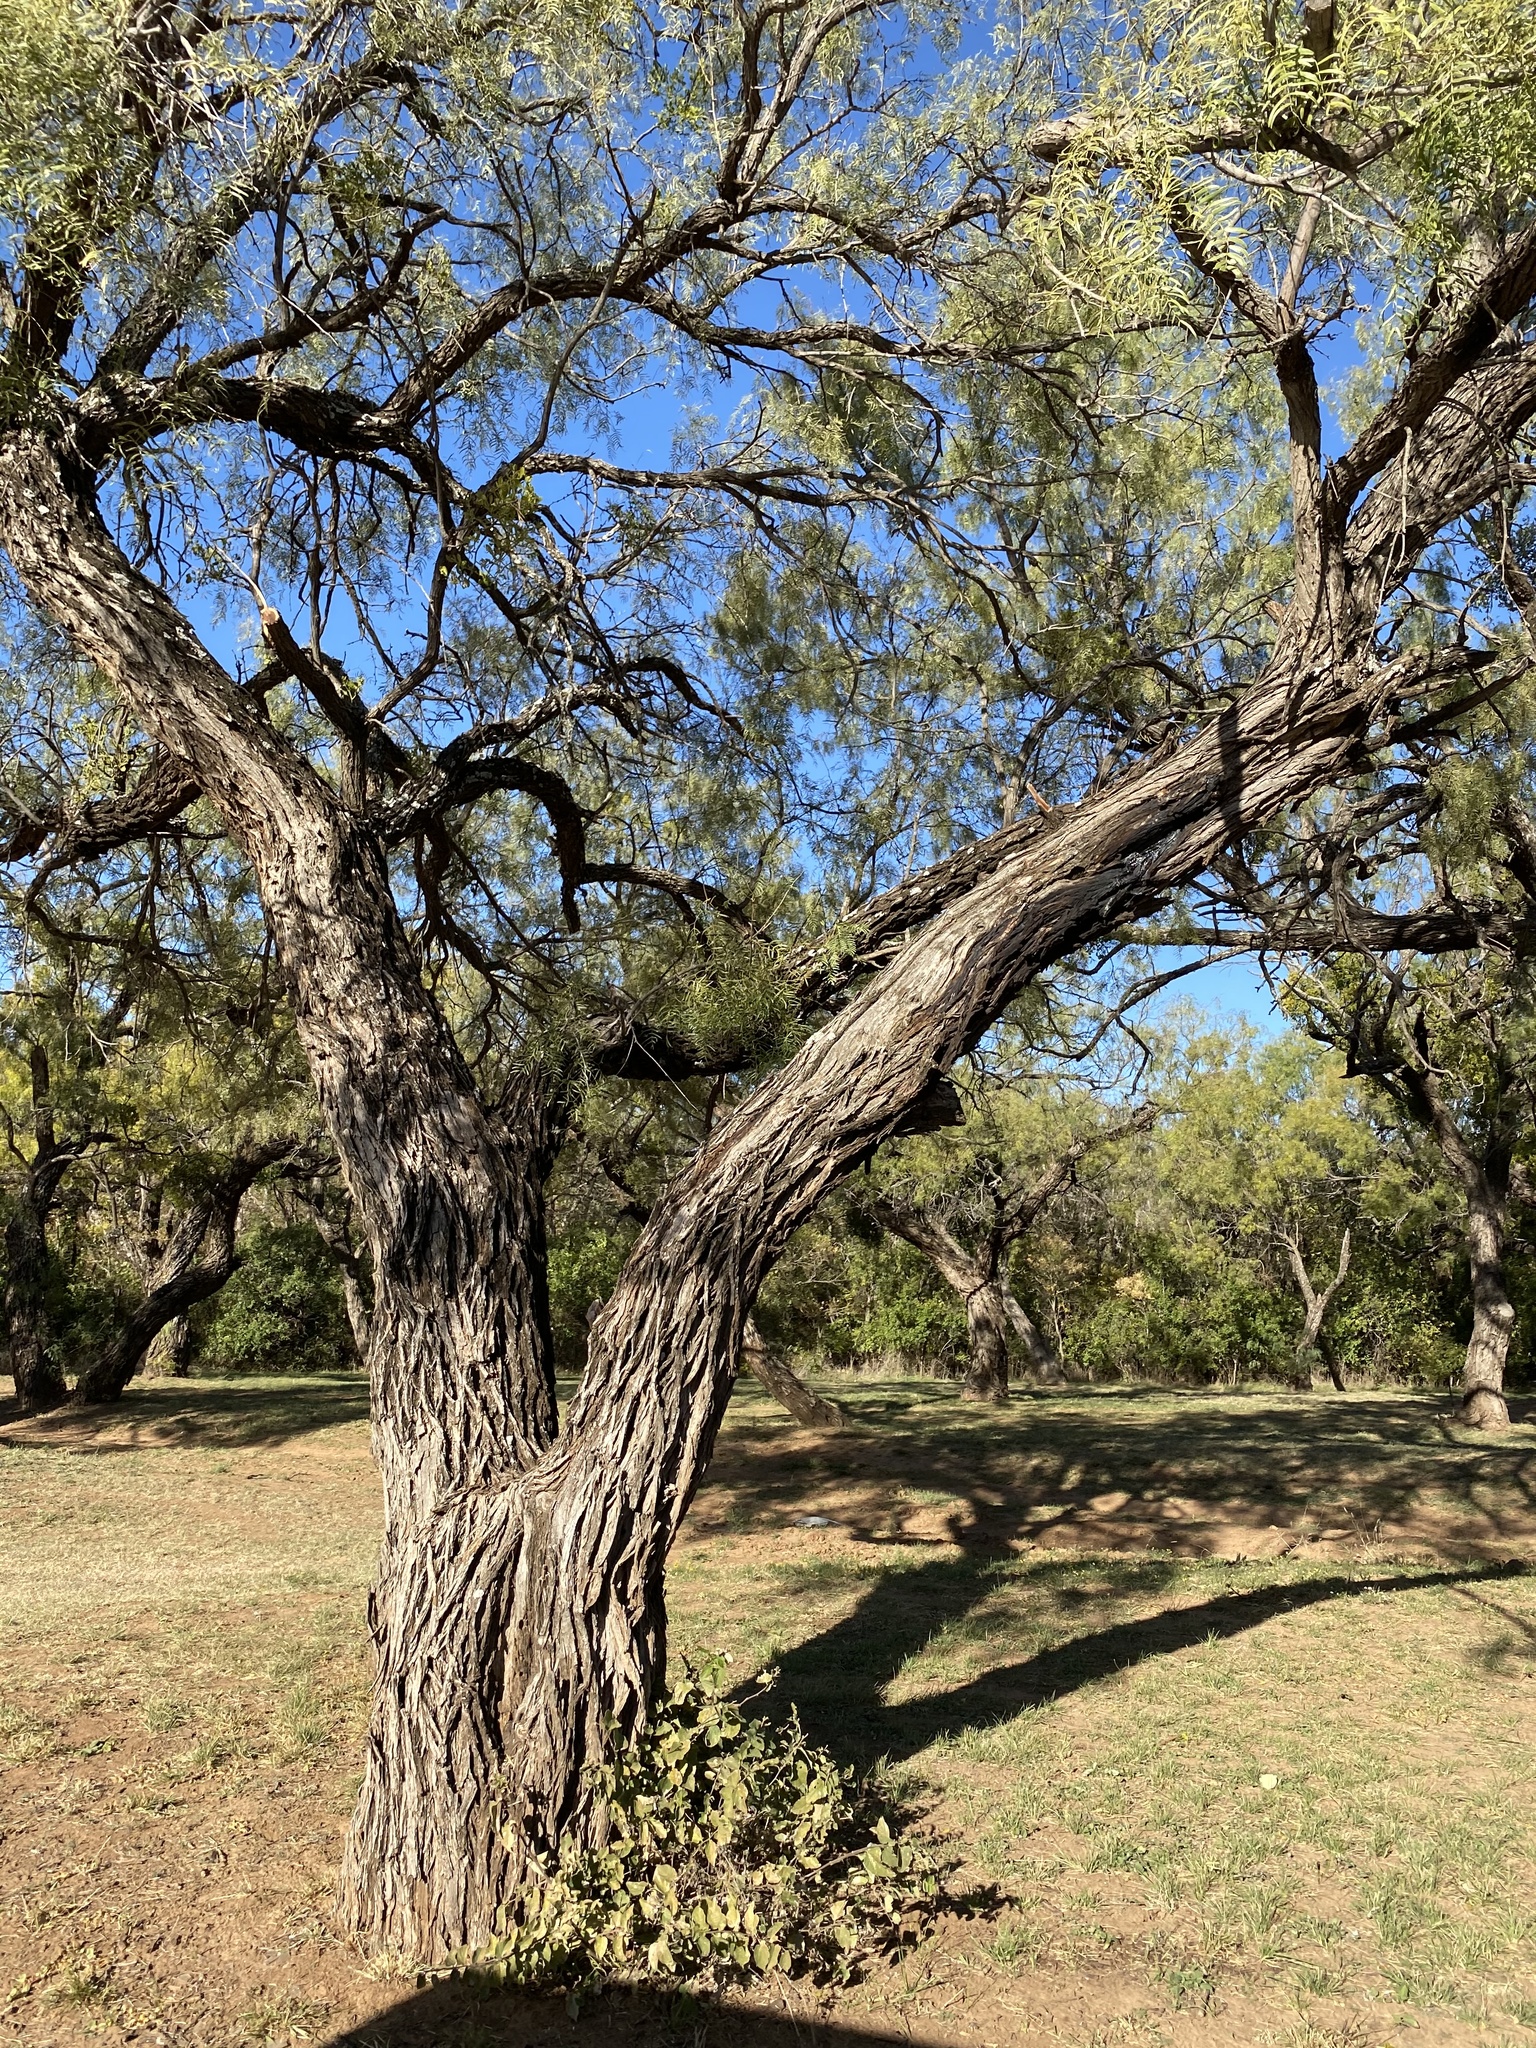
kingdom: Plantae
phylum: Tracheophyta
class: Magnoliopsida
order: Fabales
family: Fabaceae
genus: Prosopis
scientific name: Prosopis glandulosa
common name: Honey mesquite
